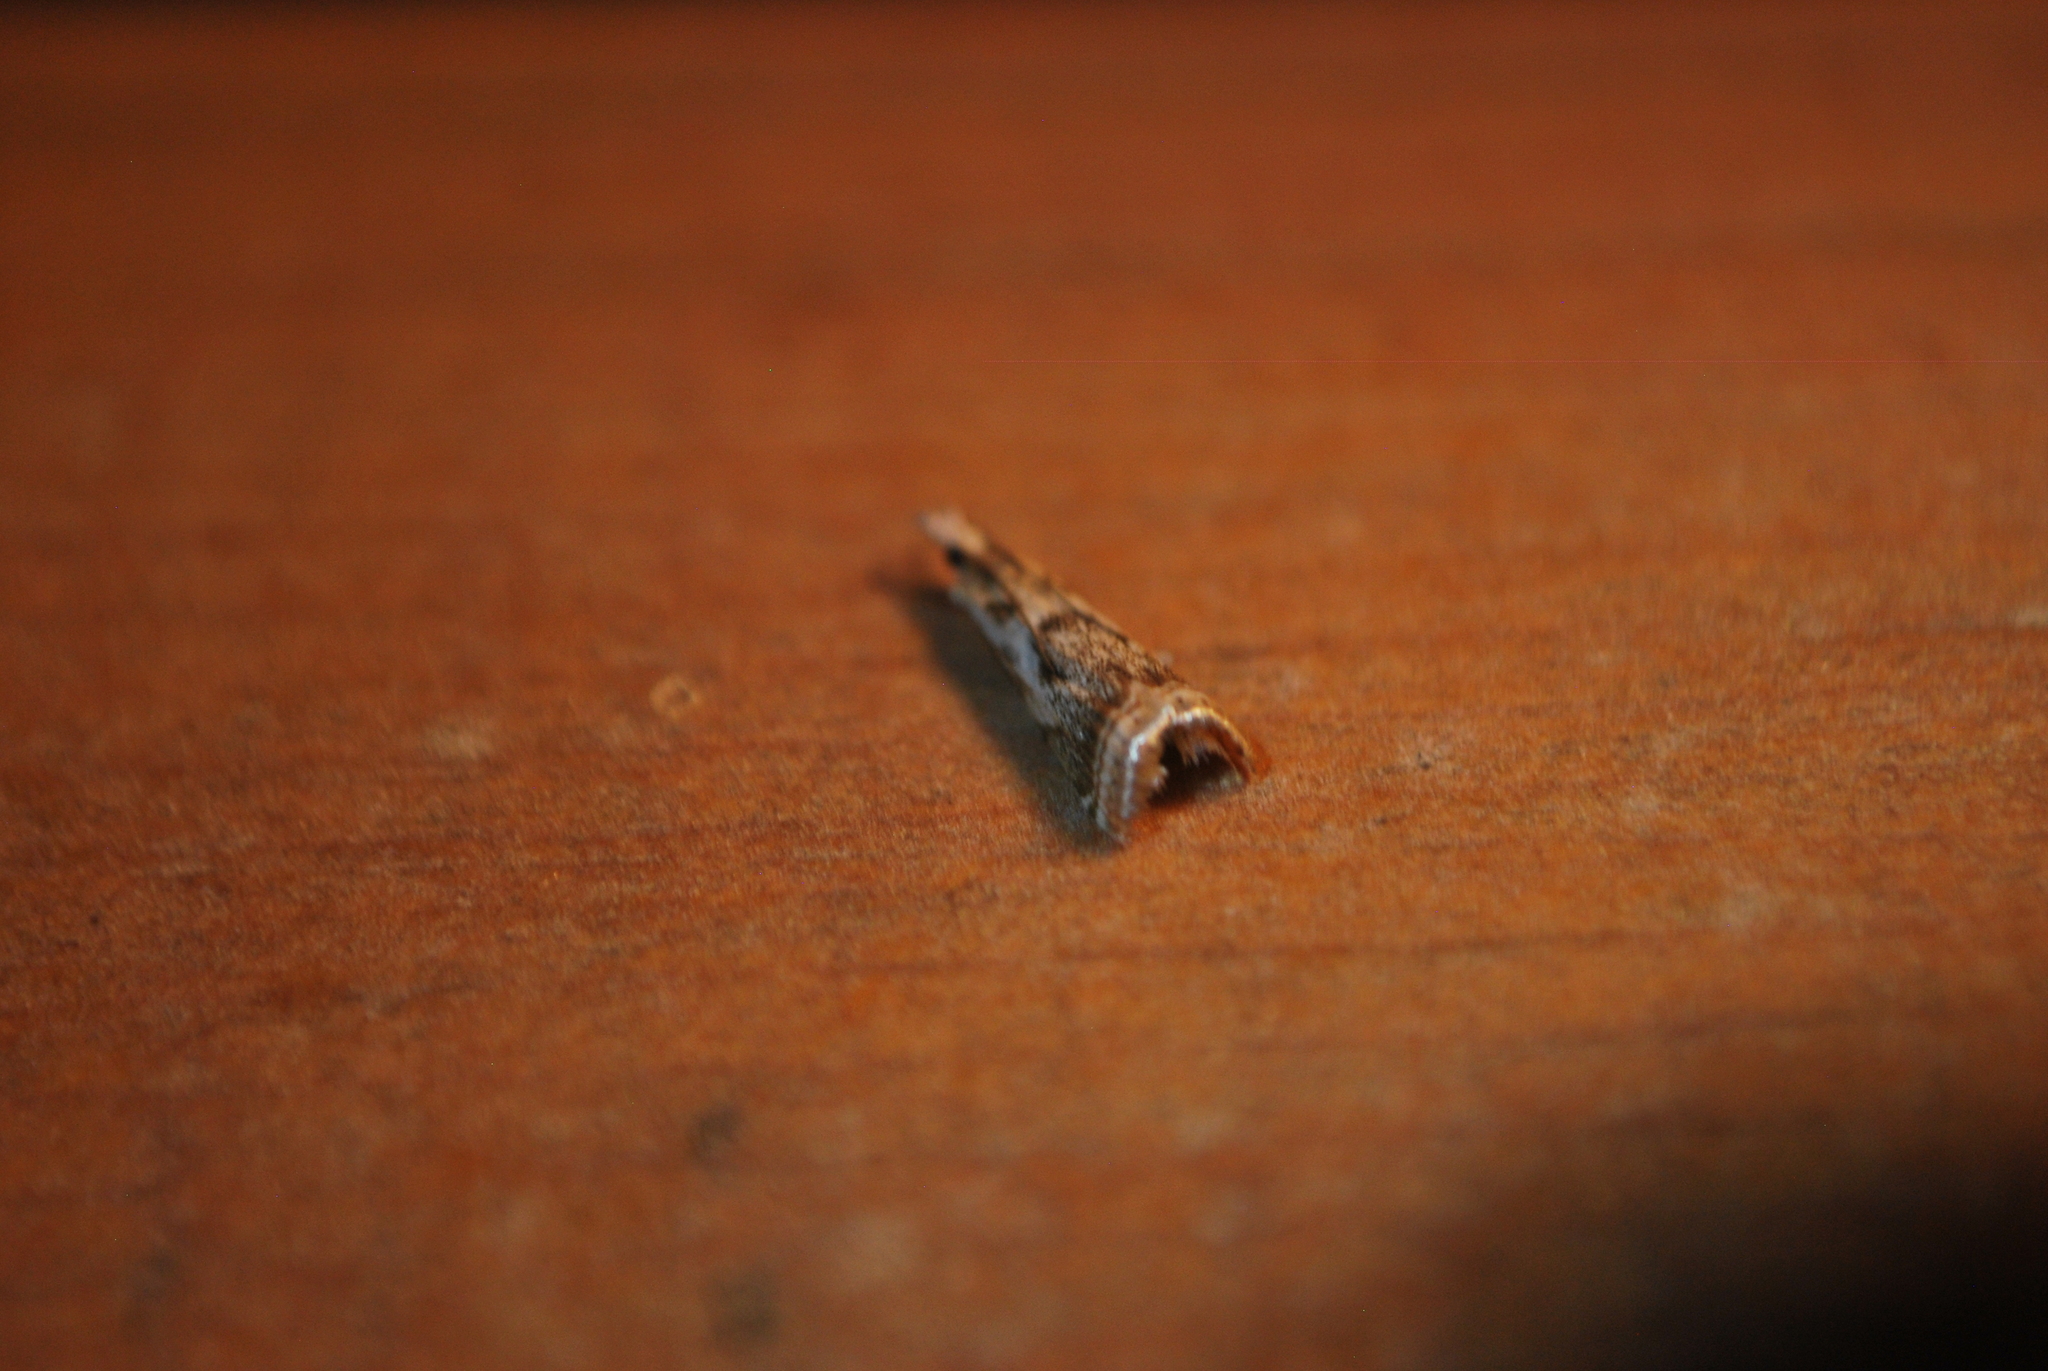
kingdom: Animalia
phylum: Arthropoda
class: Insecta
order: Lepidoptera
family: Crambidae
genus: Microcrambus
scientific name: Microcrambus elegans
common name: Elegant grass-veneer
